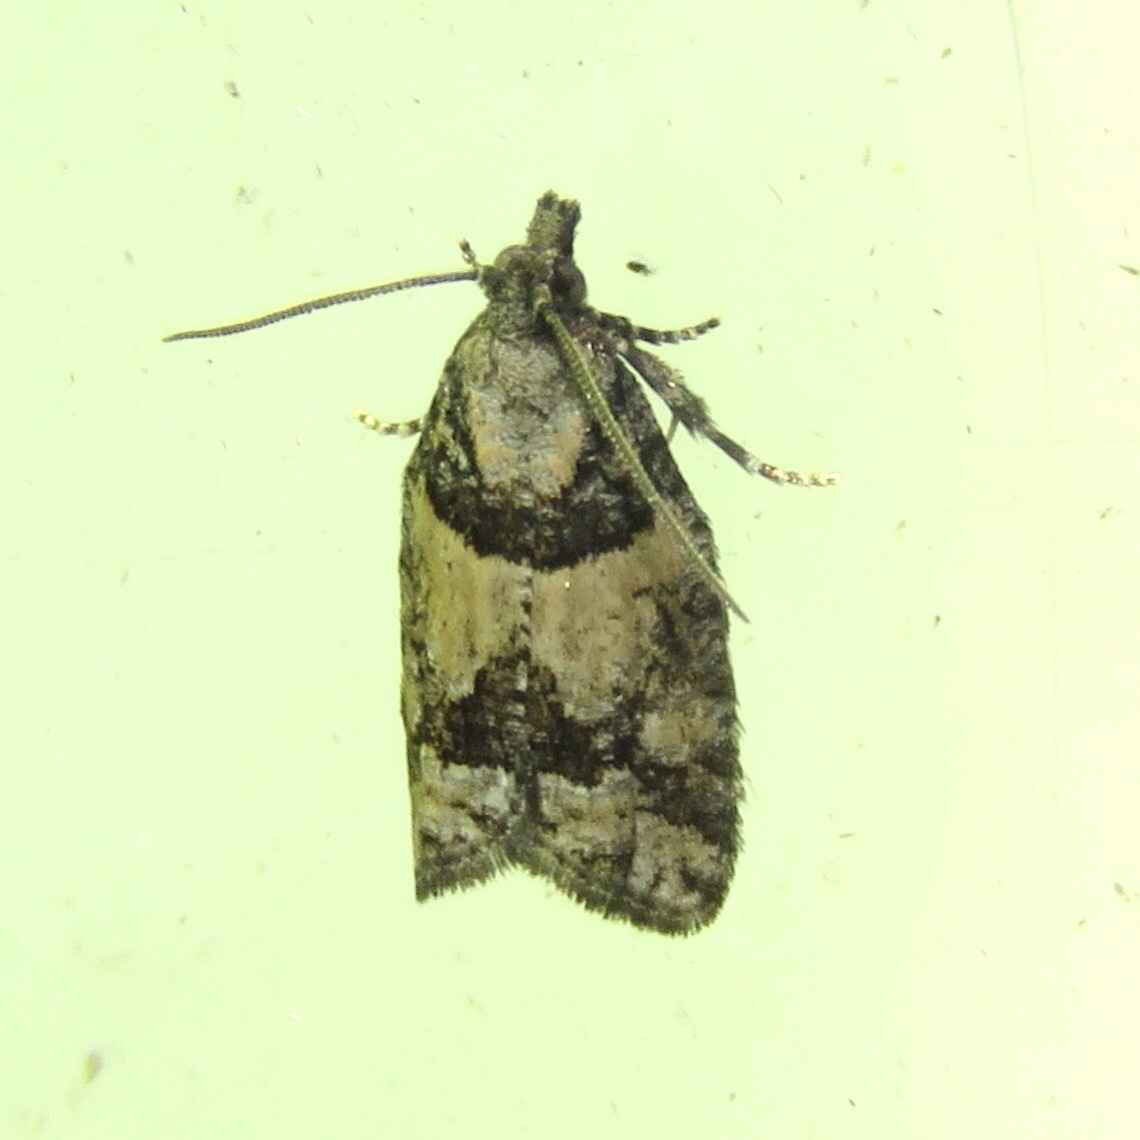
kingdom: Animalia
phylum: Arthropoda
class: Insecta
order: Lepidoptera
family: Tortricidae
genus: Epinotia
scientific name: Epinotia radicana
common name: Red-striped needleworm moth
